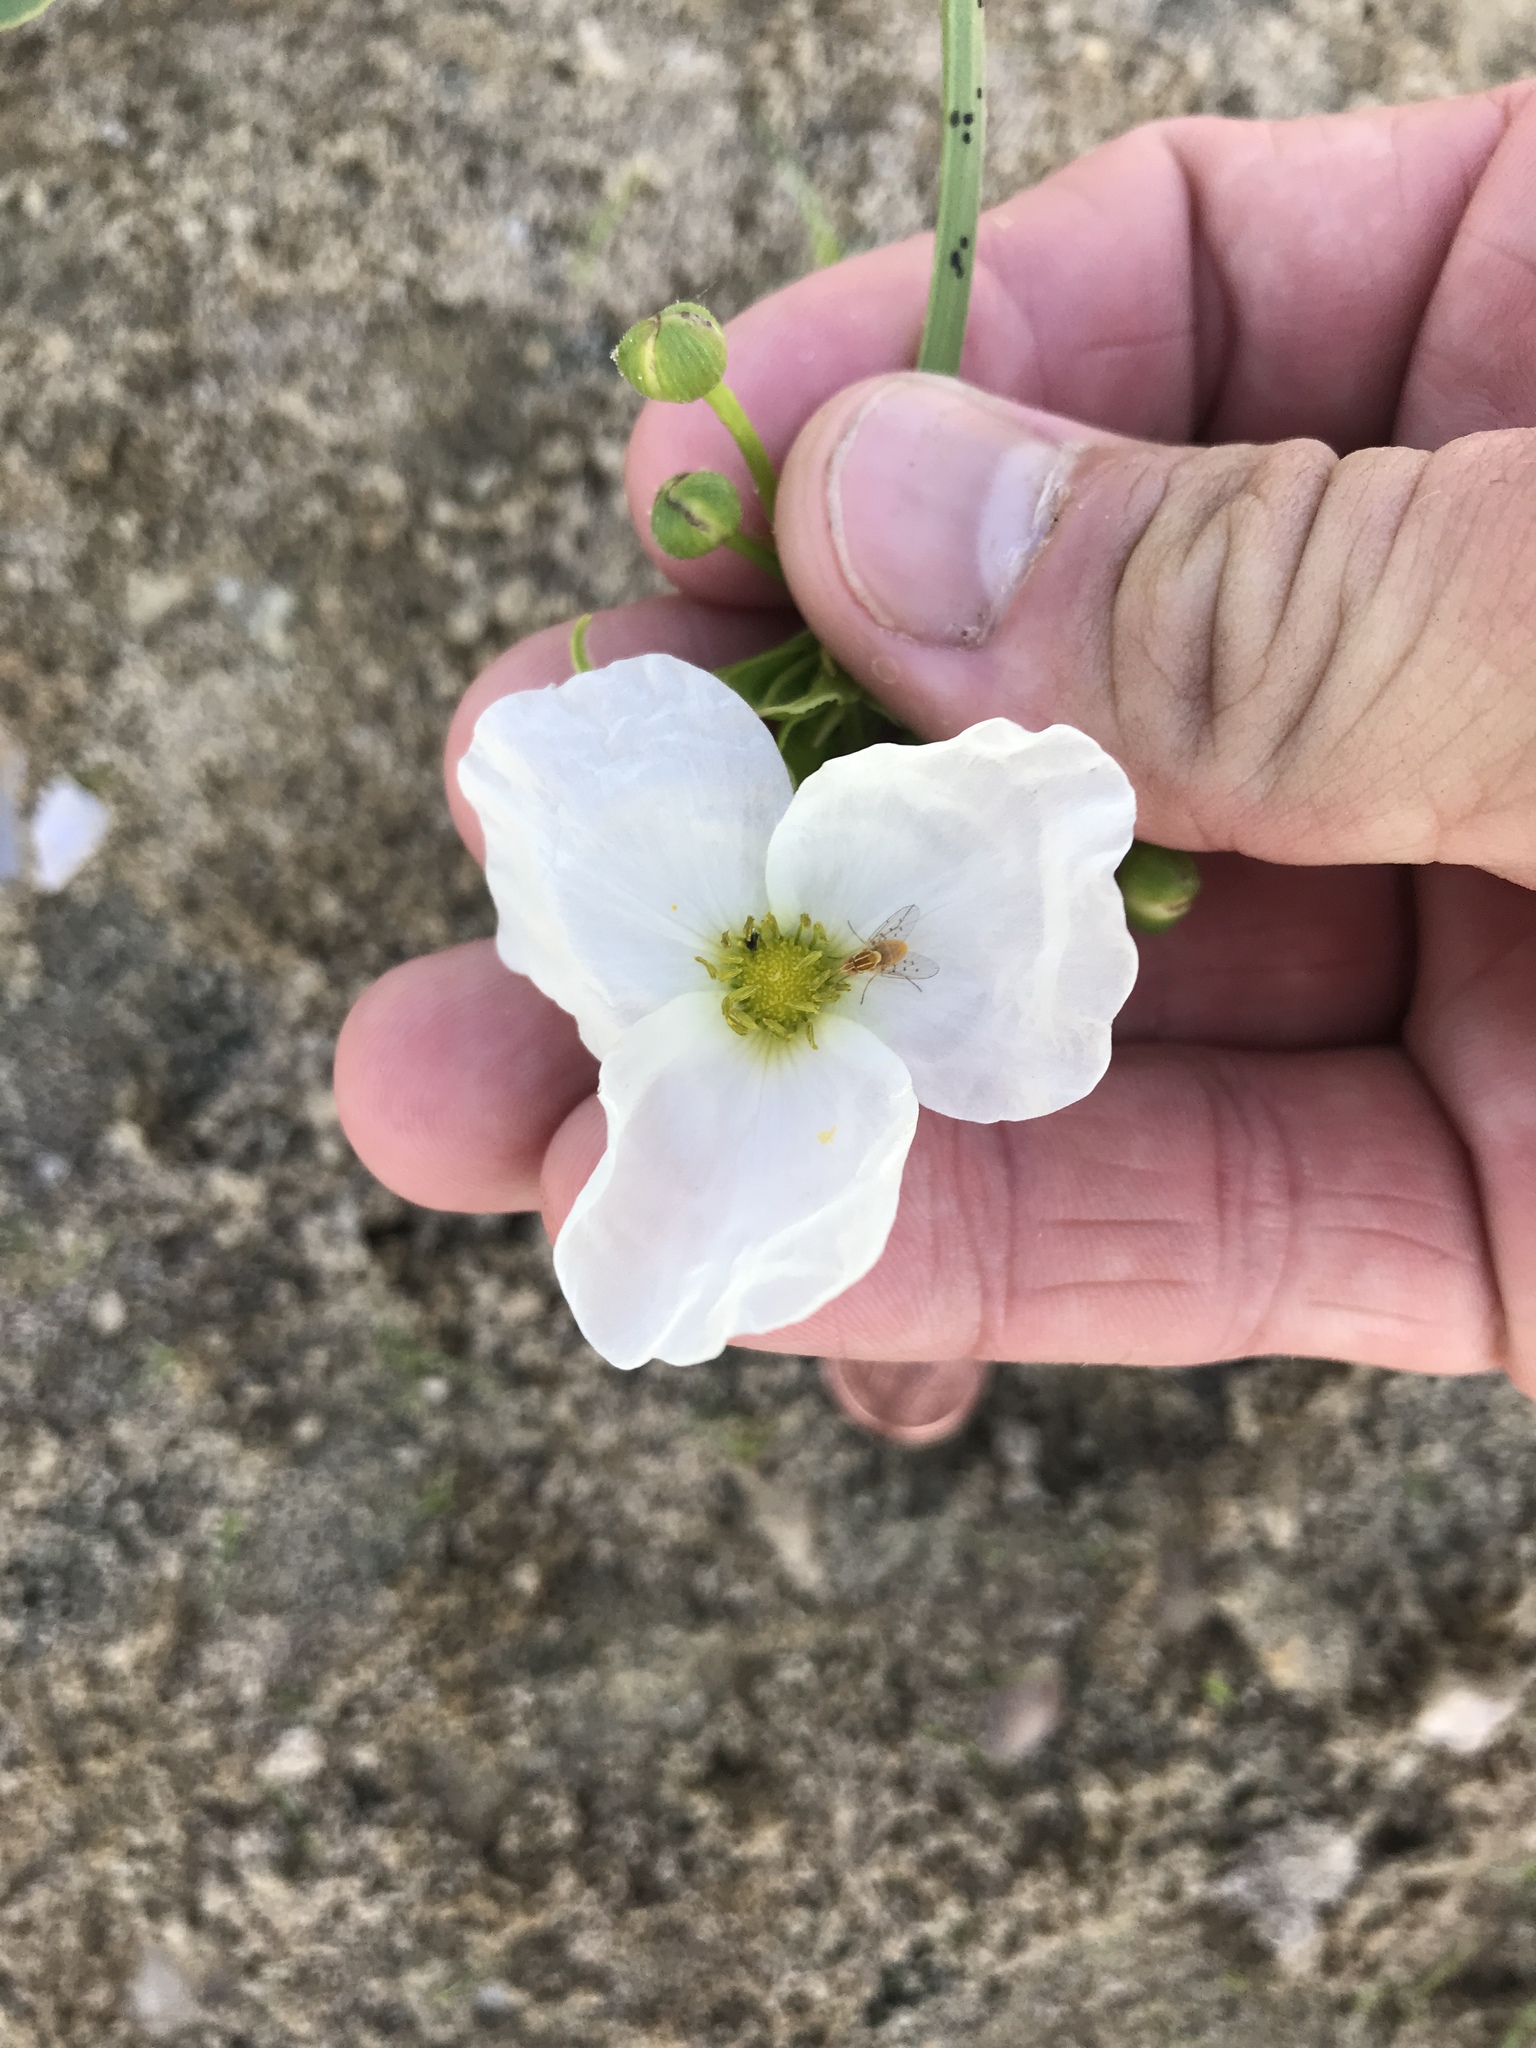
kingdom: Plantae
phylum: Tracheophyta
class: Liliopsida
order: Alismatales
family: Alismataceae
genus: Aquarius
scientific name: Aquarius cordifolius
